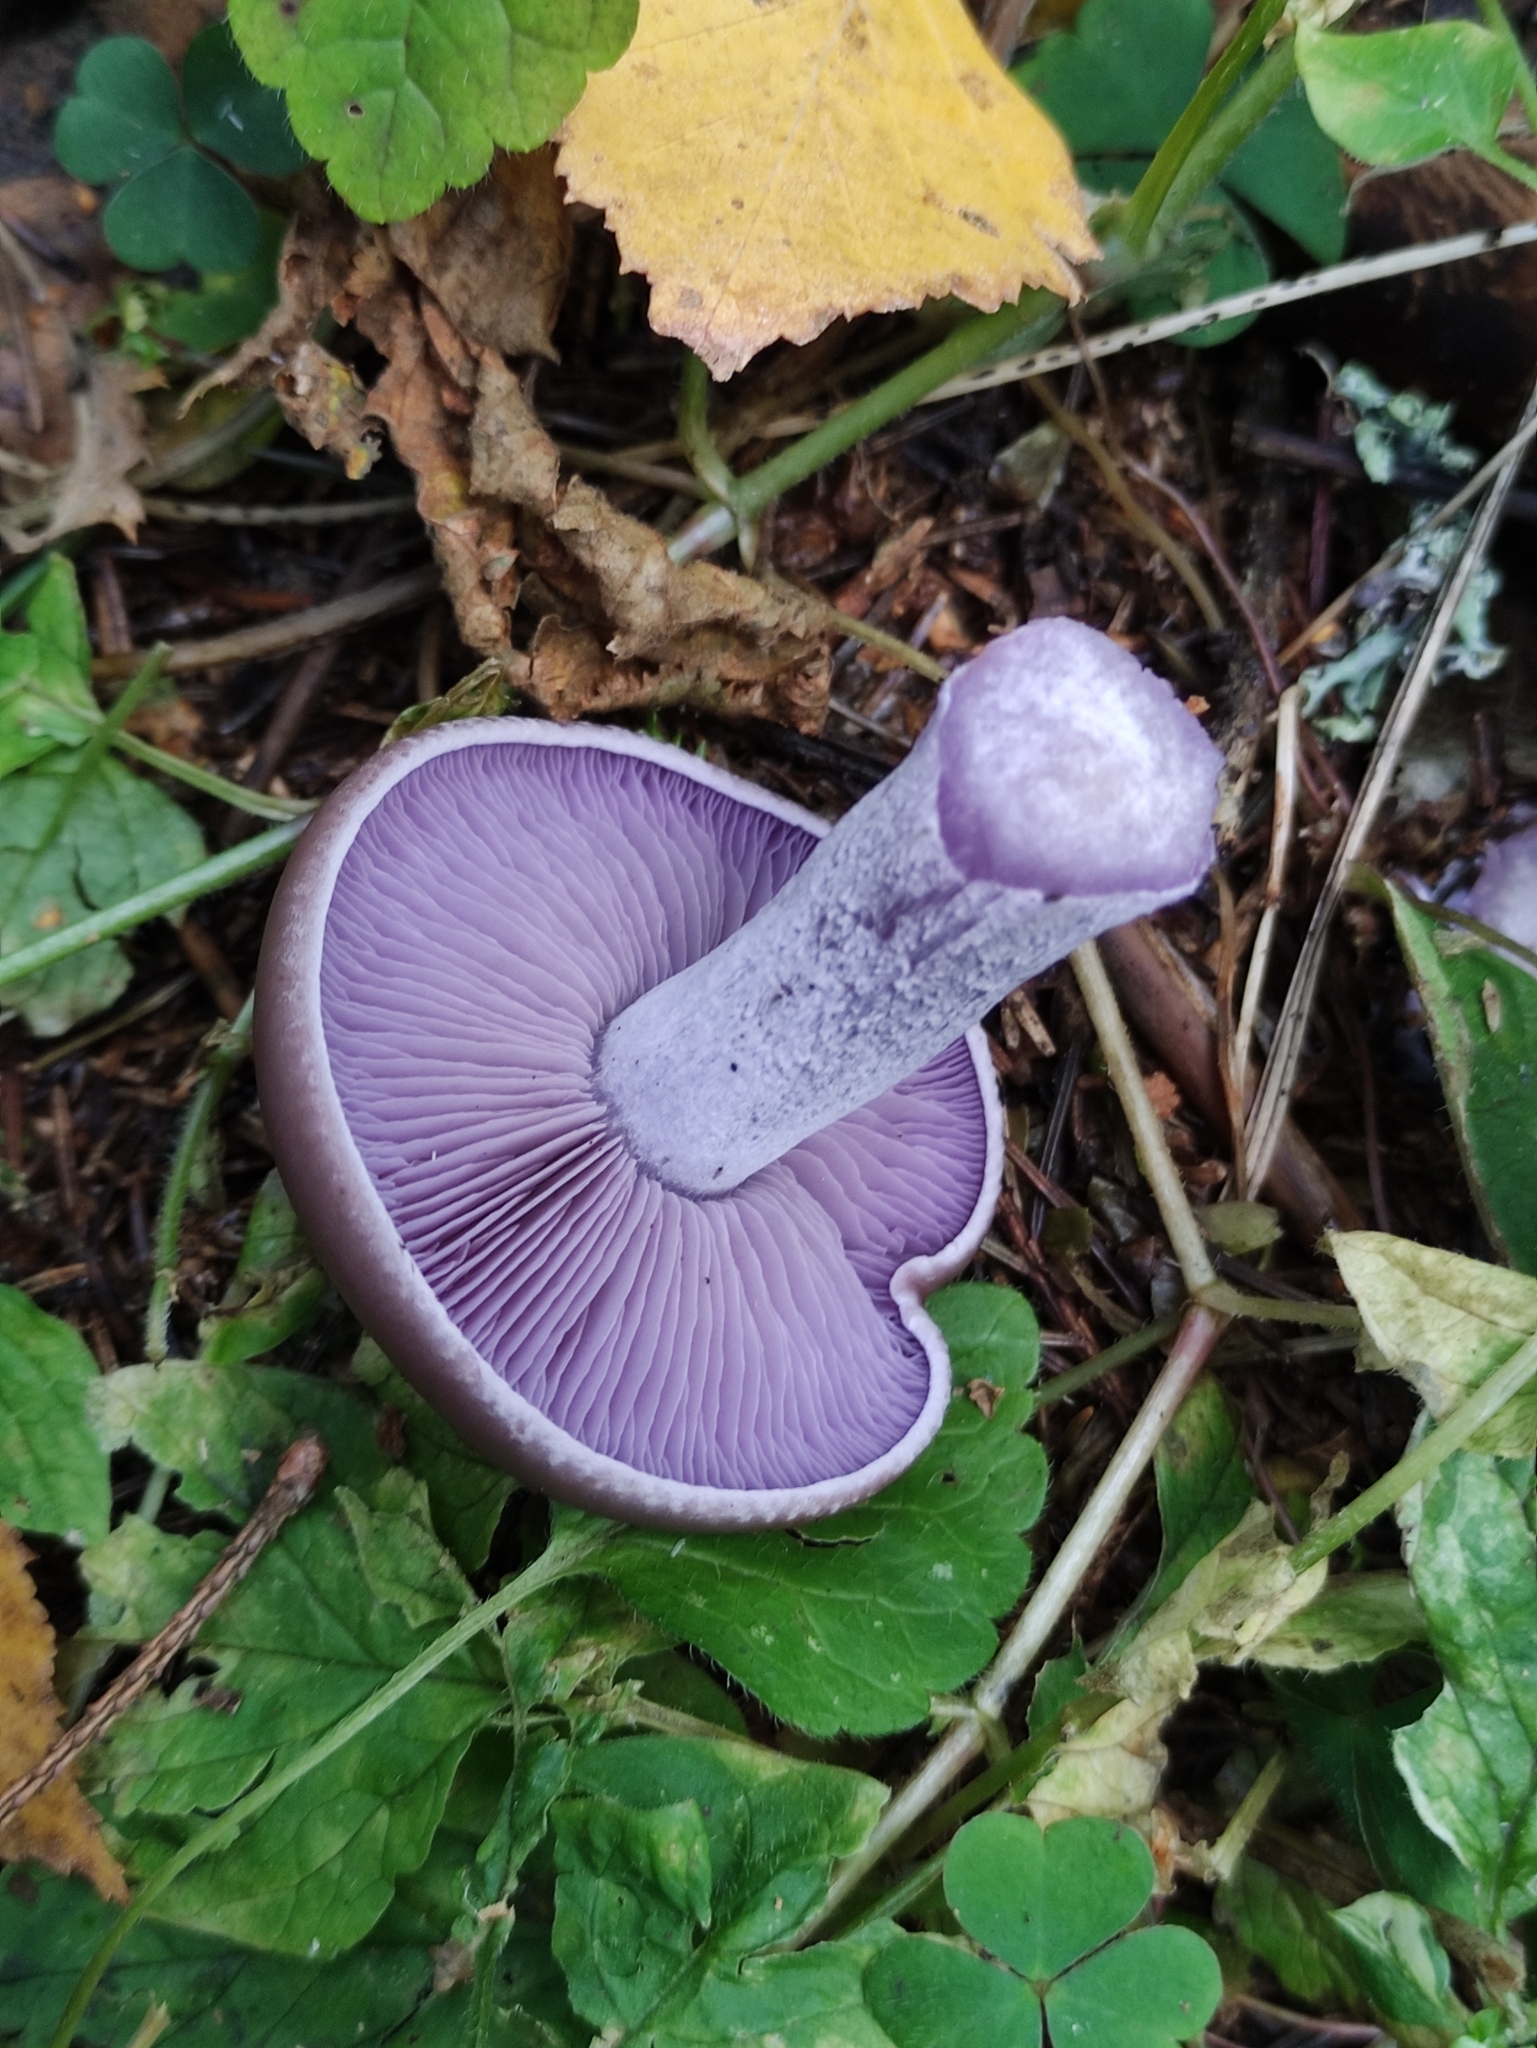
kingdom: Fungi
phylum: Basidiomycota
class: Agaricomycetes
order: Agaricales
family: Tricholomataceae
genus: Collybia
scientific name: Collybia
